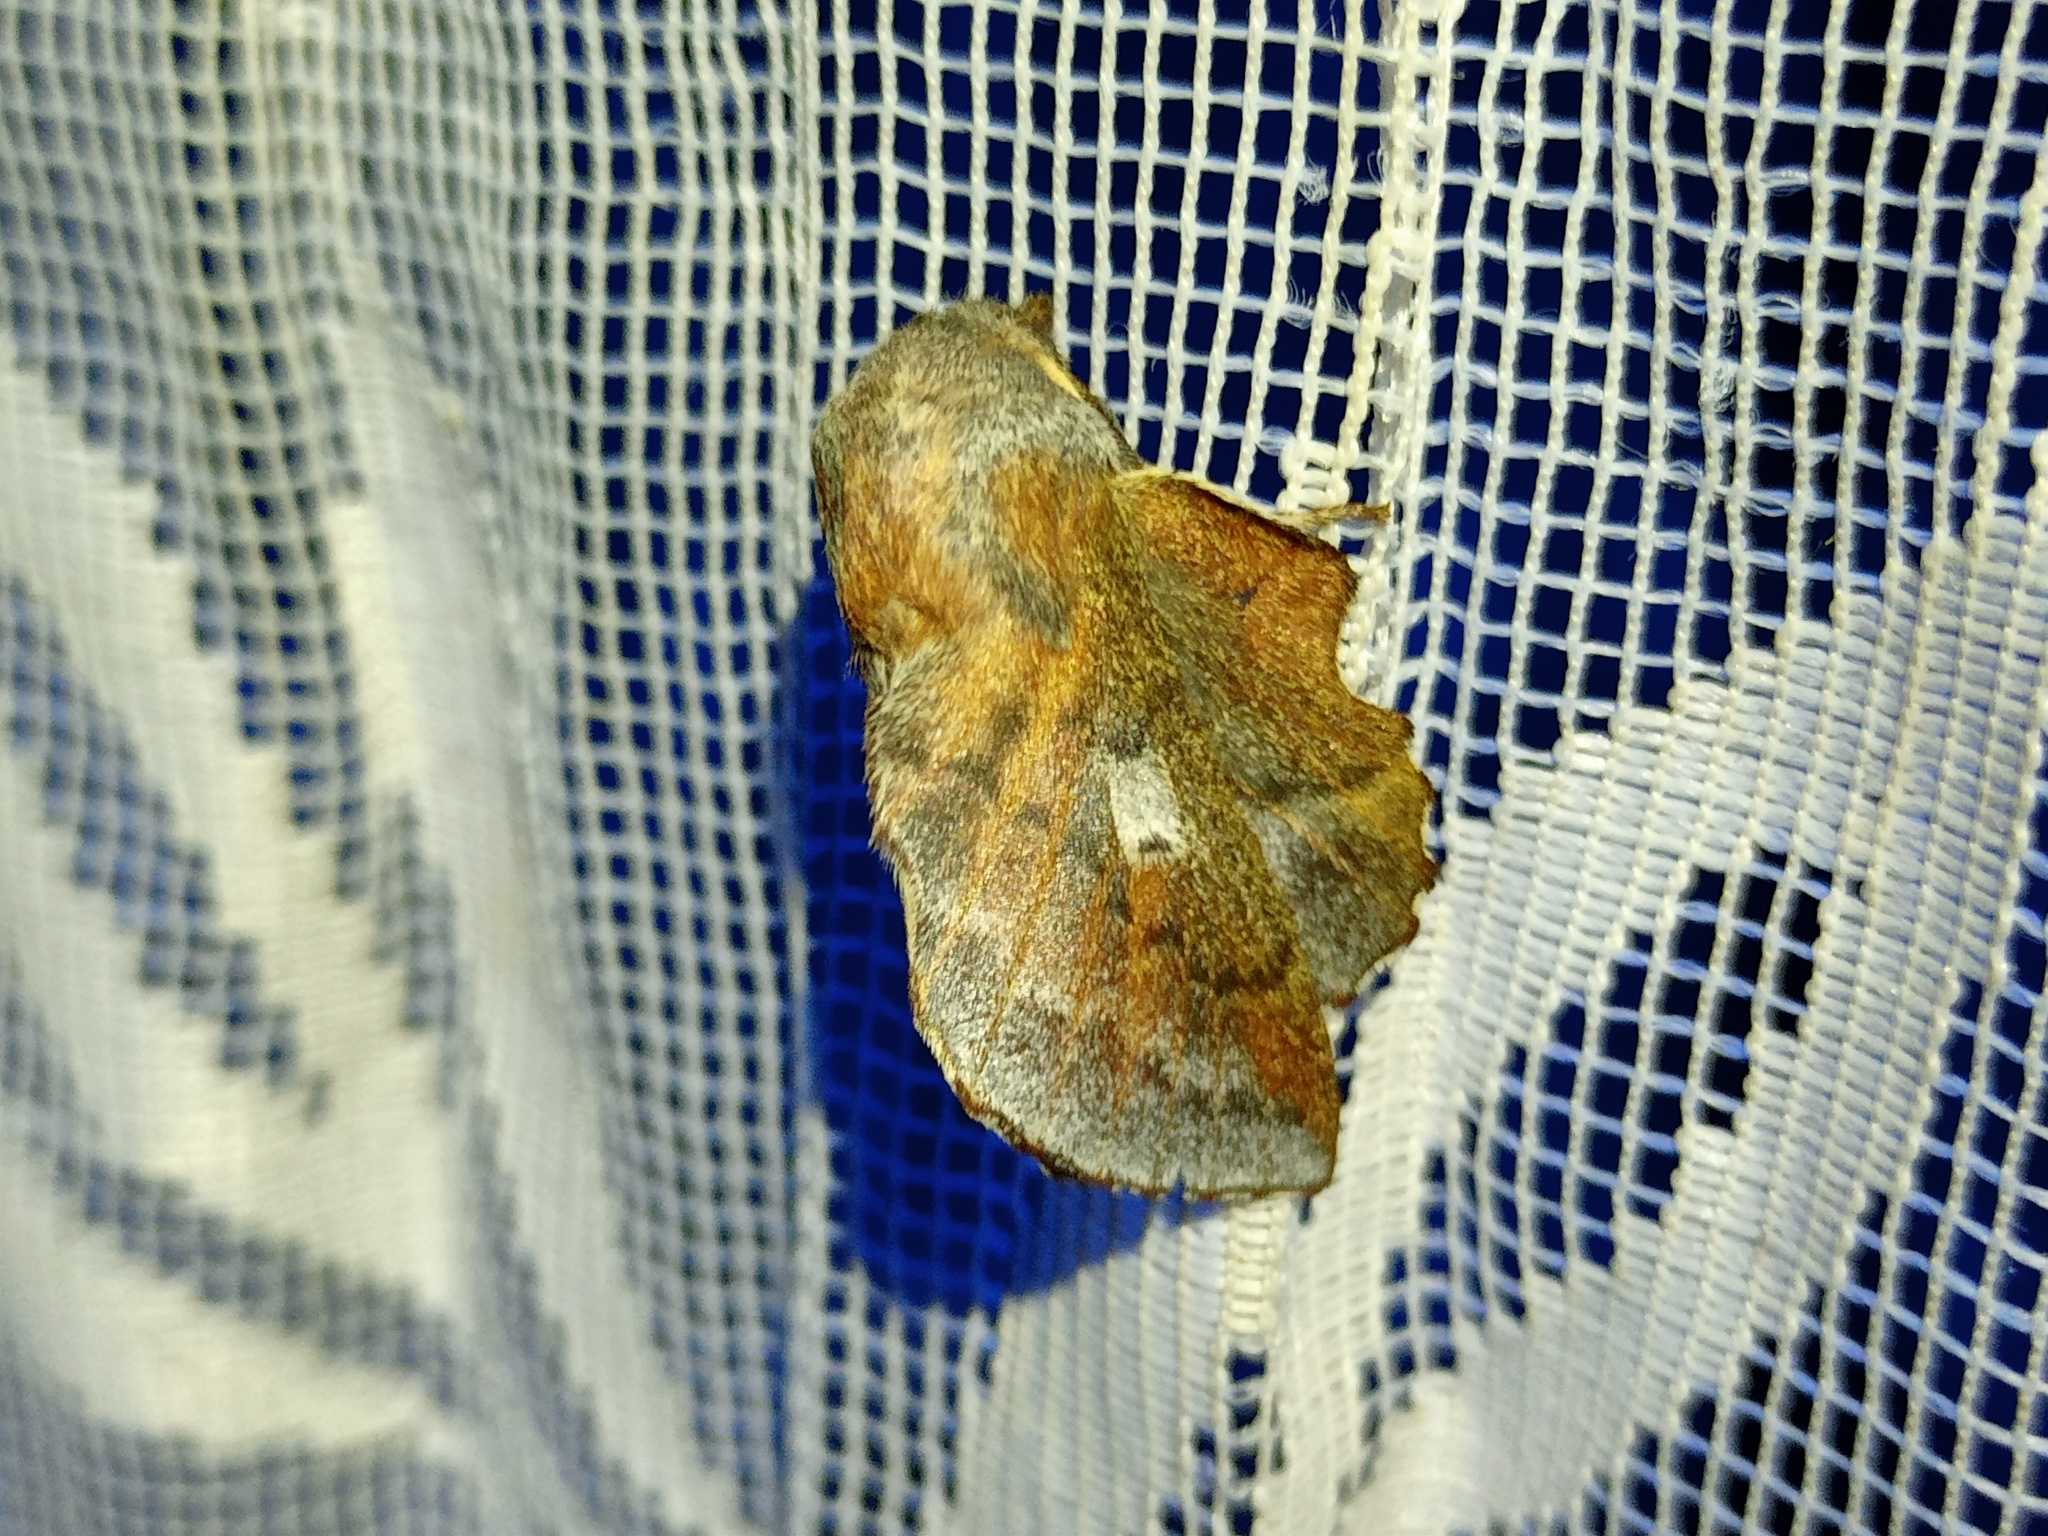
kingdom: Animalia
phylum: Arthropoda
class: Insecta
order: Lepidoptera
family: Lasiocampidae
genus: Phyllodesma
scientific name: Phyllodesma ilicifolia
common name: Small lappet
